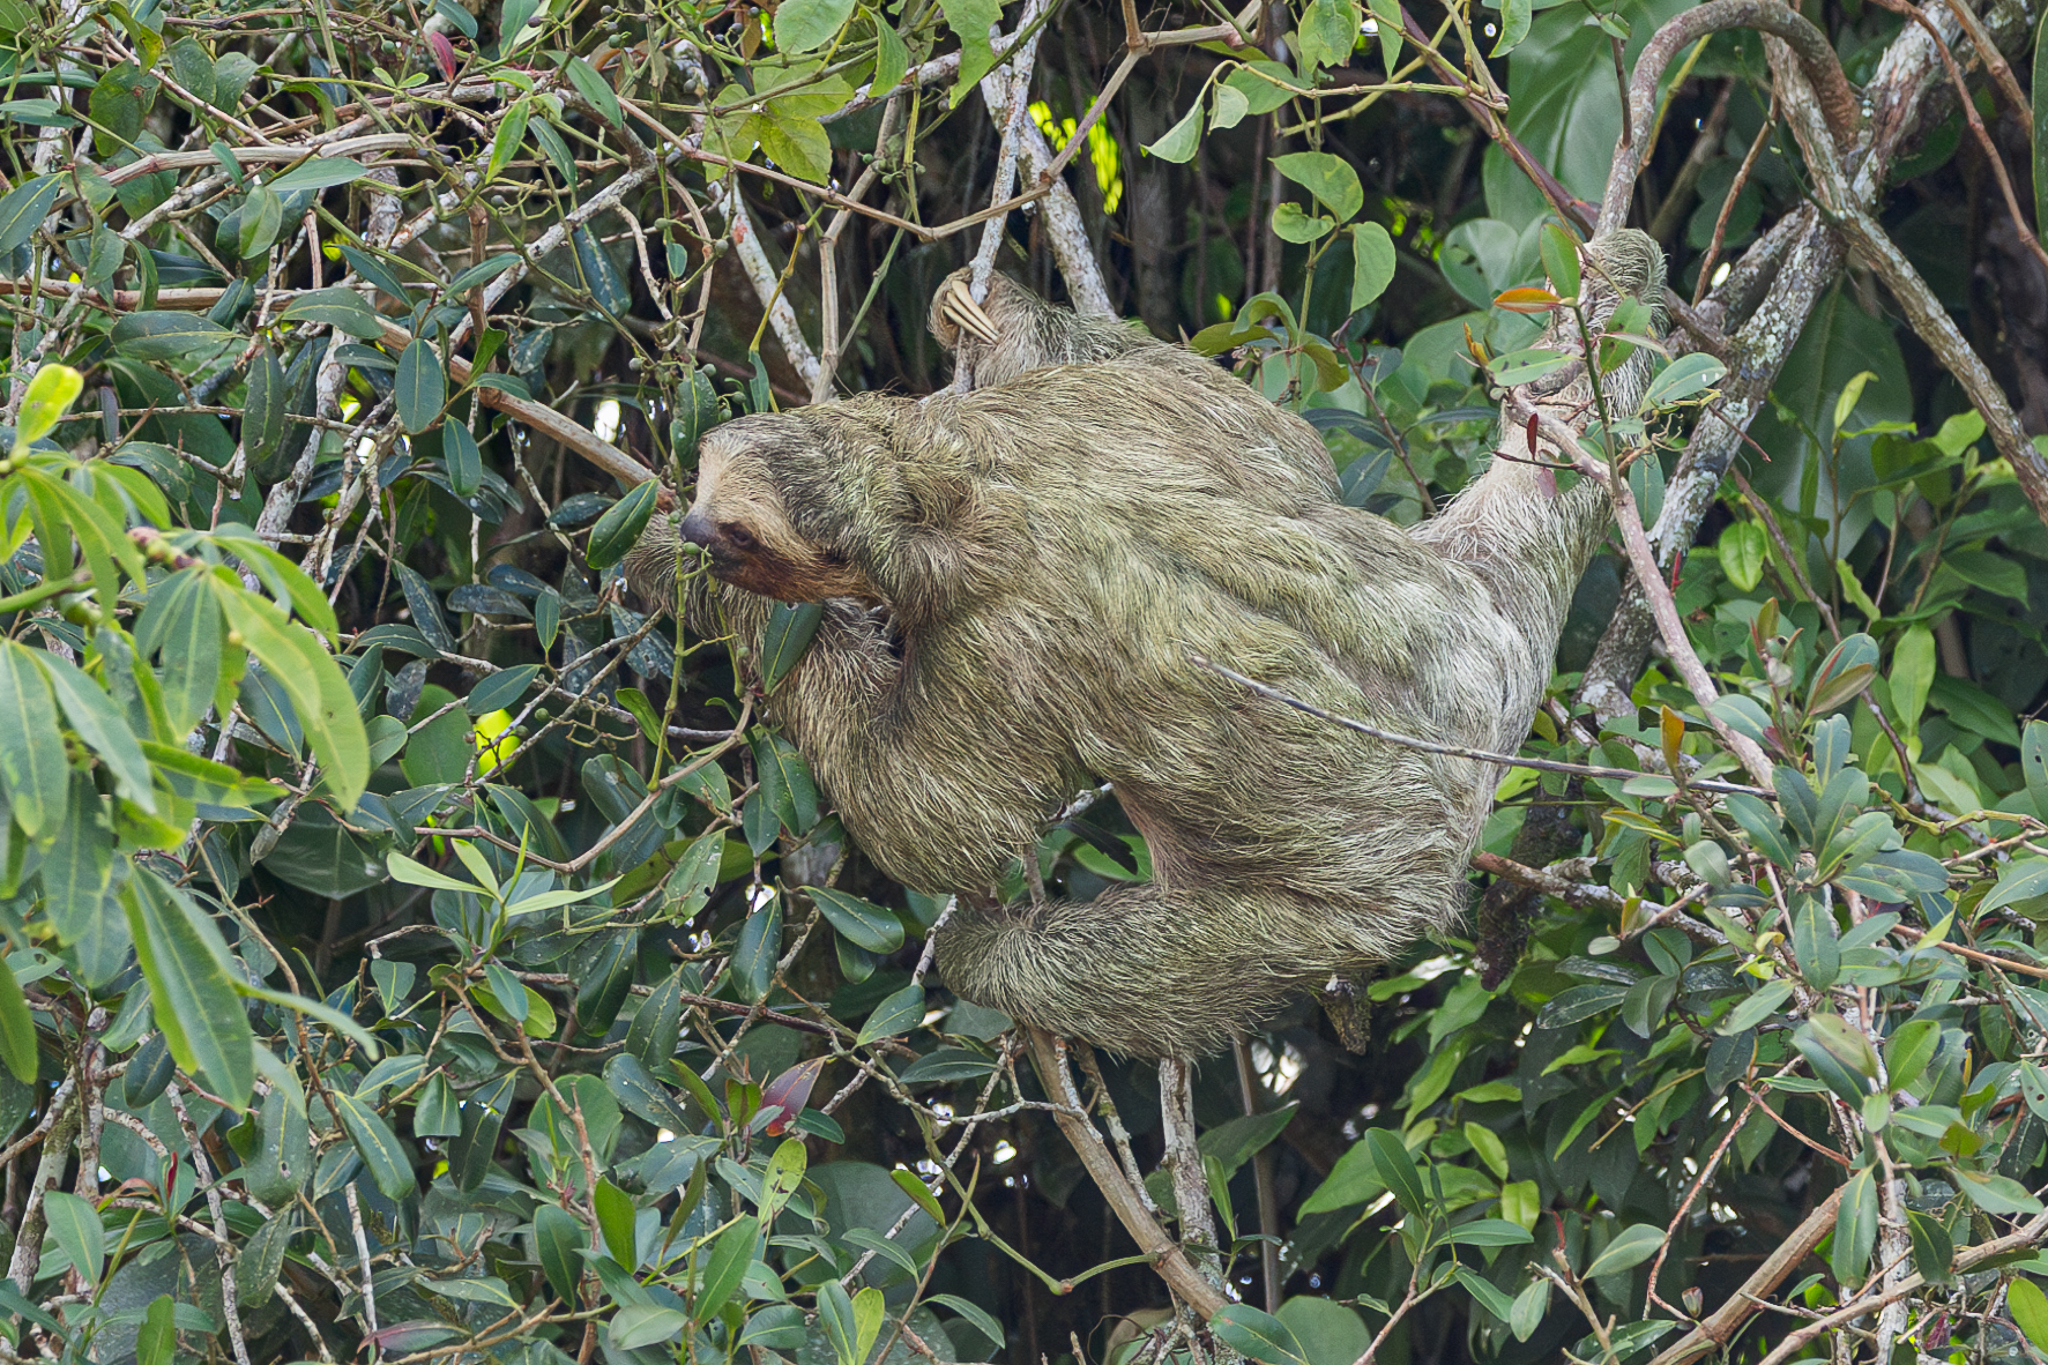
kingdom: Animalia
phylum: Chordata
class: Mammalia
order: Pilosa
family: Bradypodidae
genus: Bradypus
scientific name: Bradypus variegatus
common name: Brown-throated three-toed sloth
